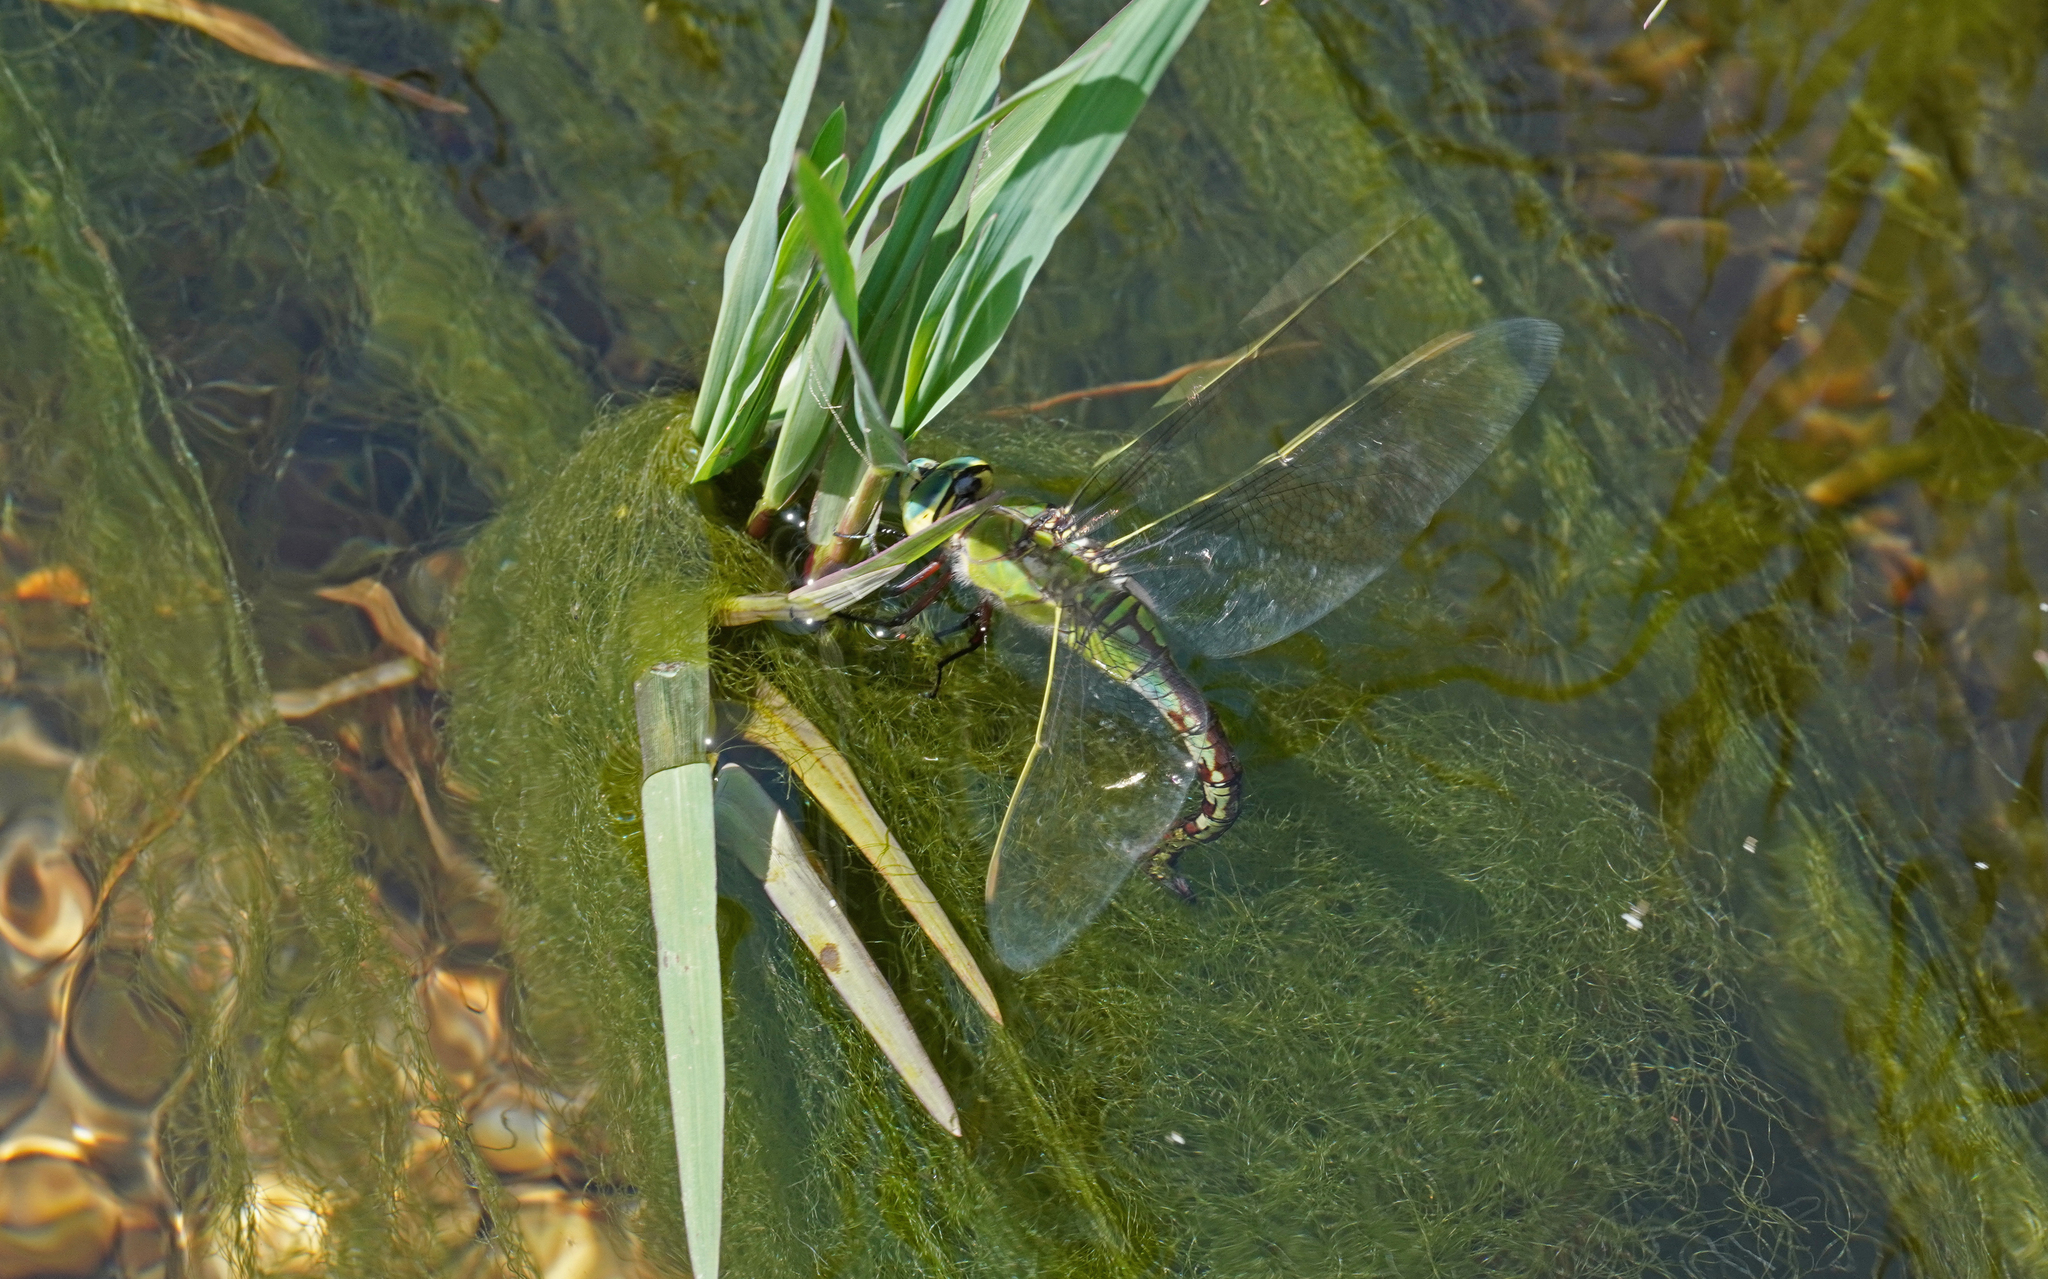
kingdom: Animalia
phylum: Arthropoda
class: Insecta
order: Odonata
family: Aeshnidae
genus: Anax
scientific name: Anax imperator
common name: Emperor dragonfly
